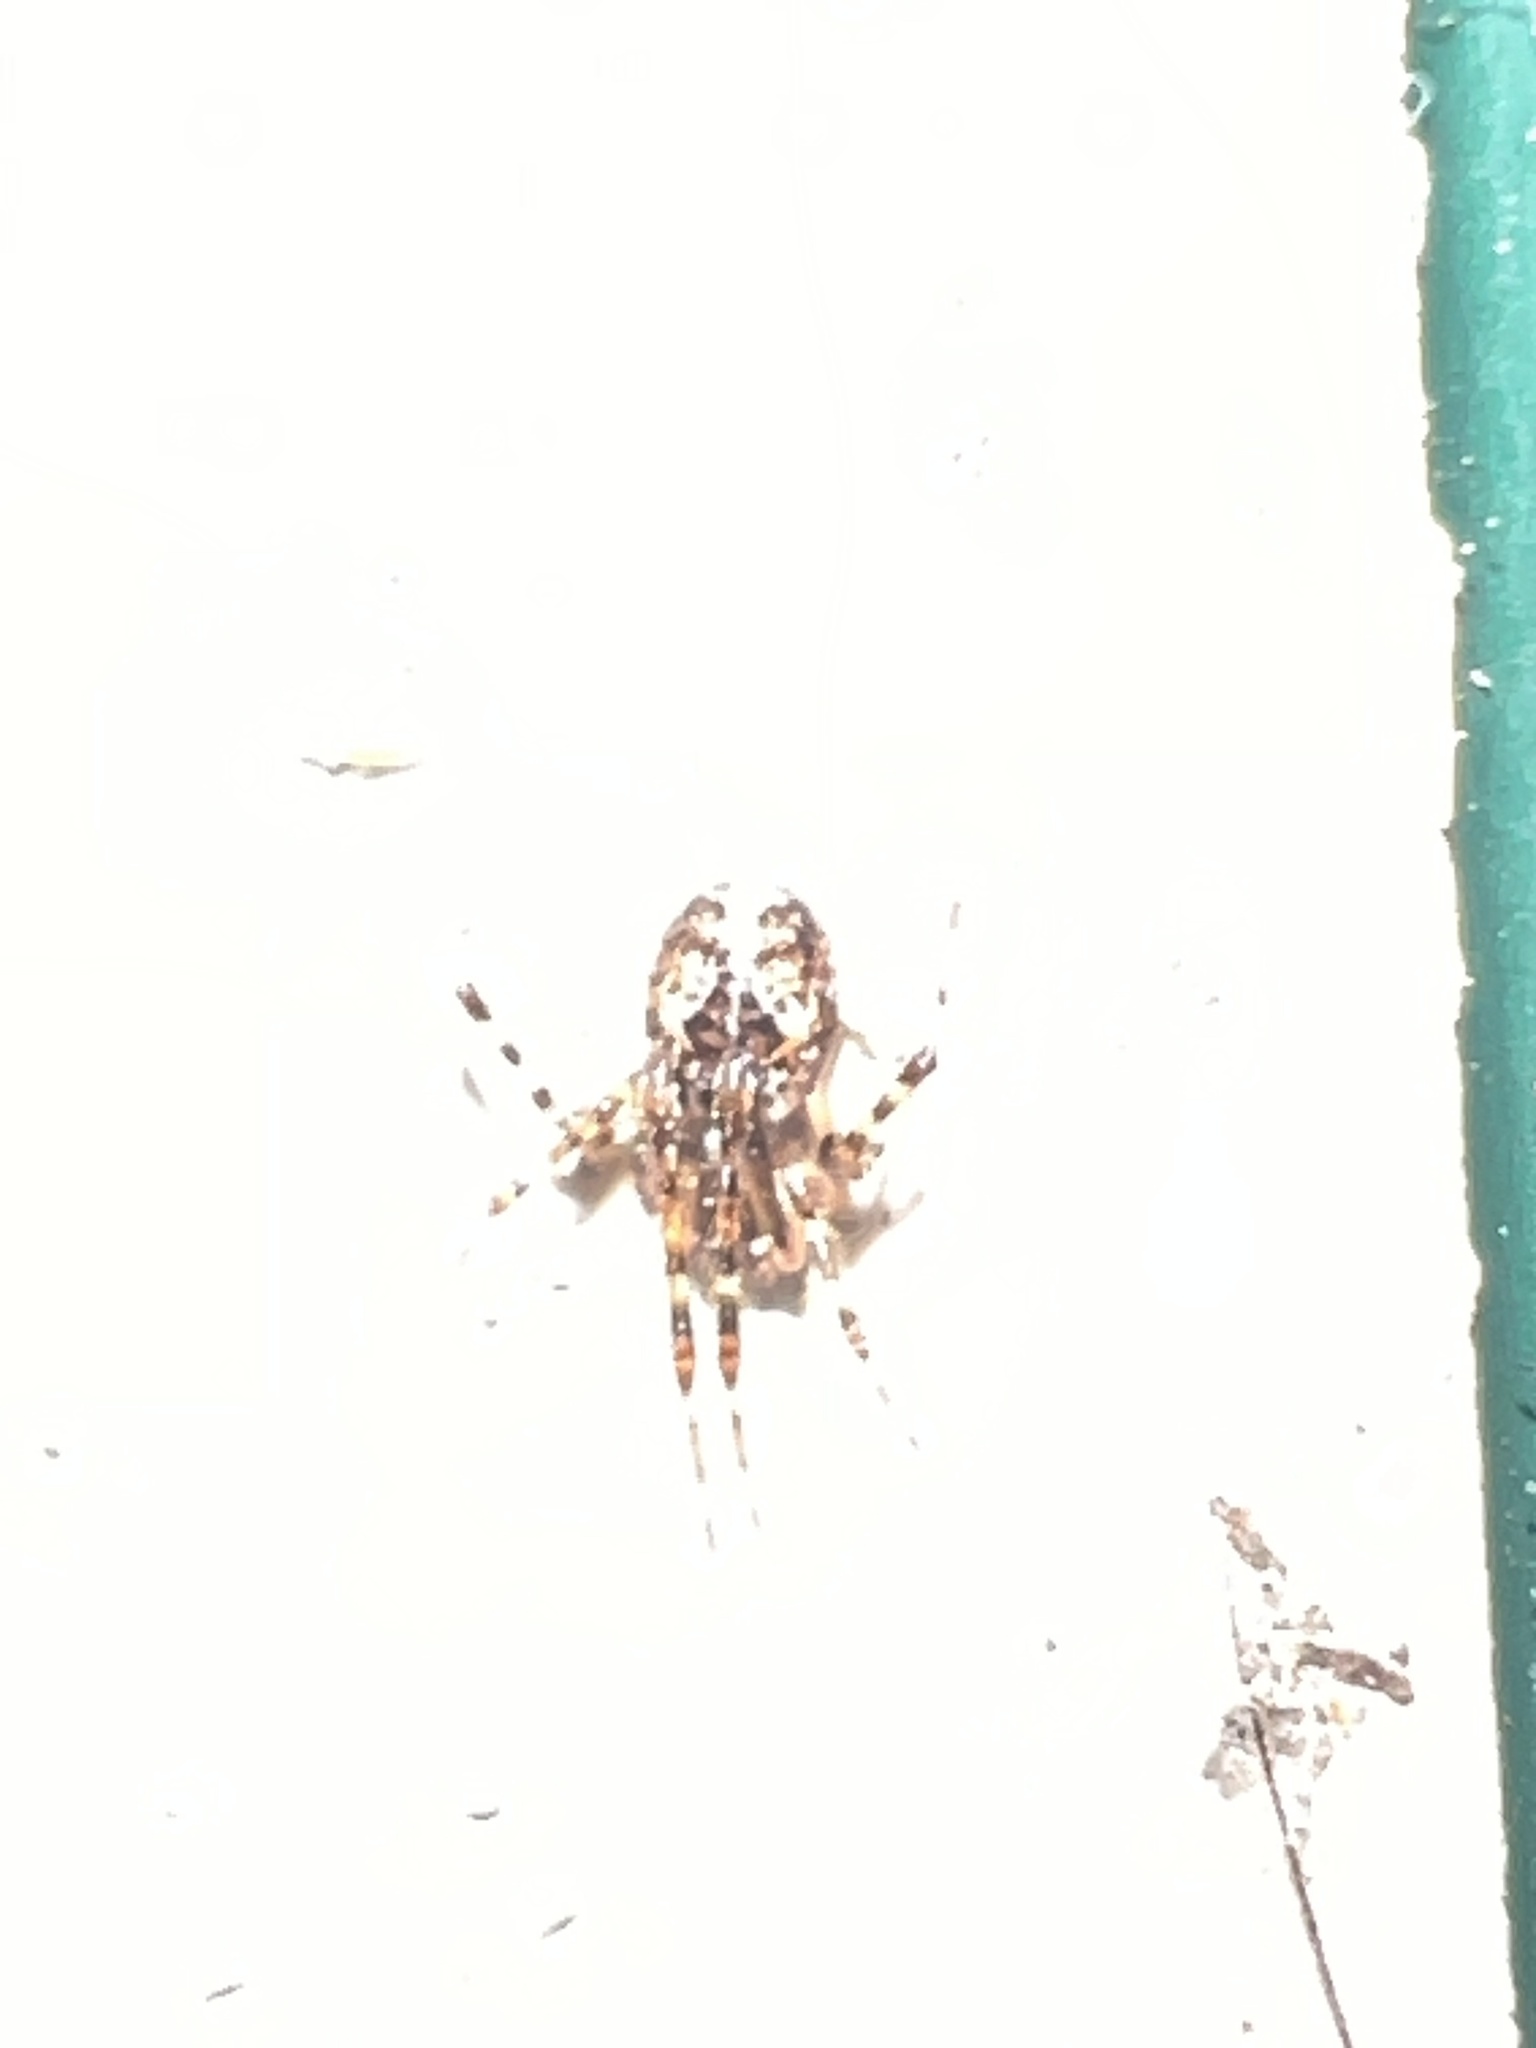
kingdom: Animalia
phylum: Arthropoda
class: Arachnida
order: Araneae
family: Theridiidae
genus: Cryptachaea
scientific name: Cryptachaea veruculata
